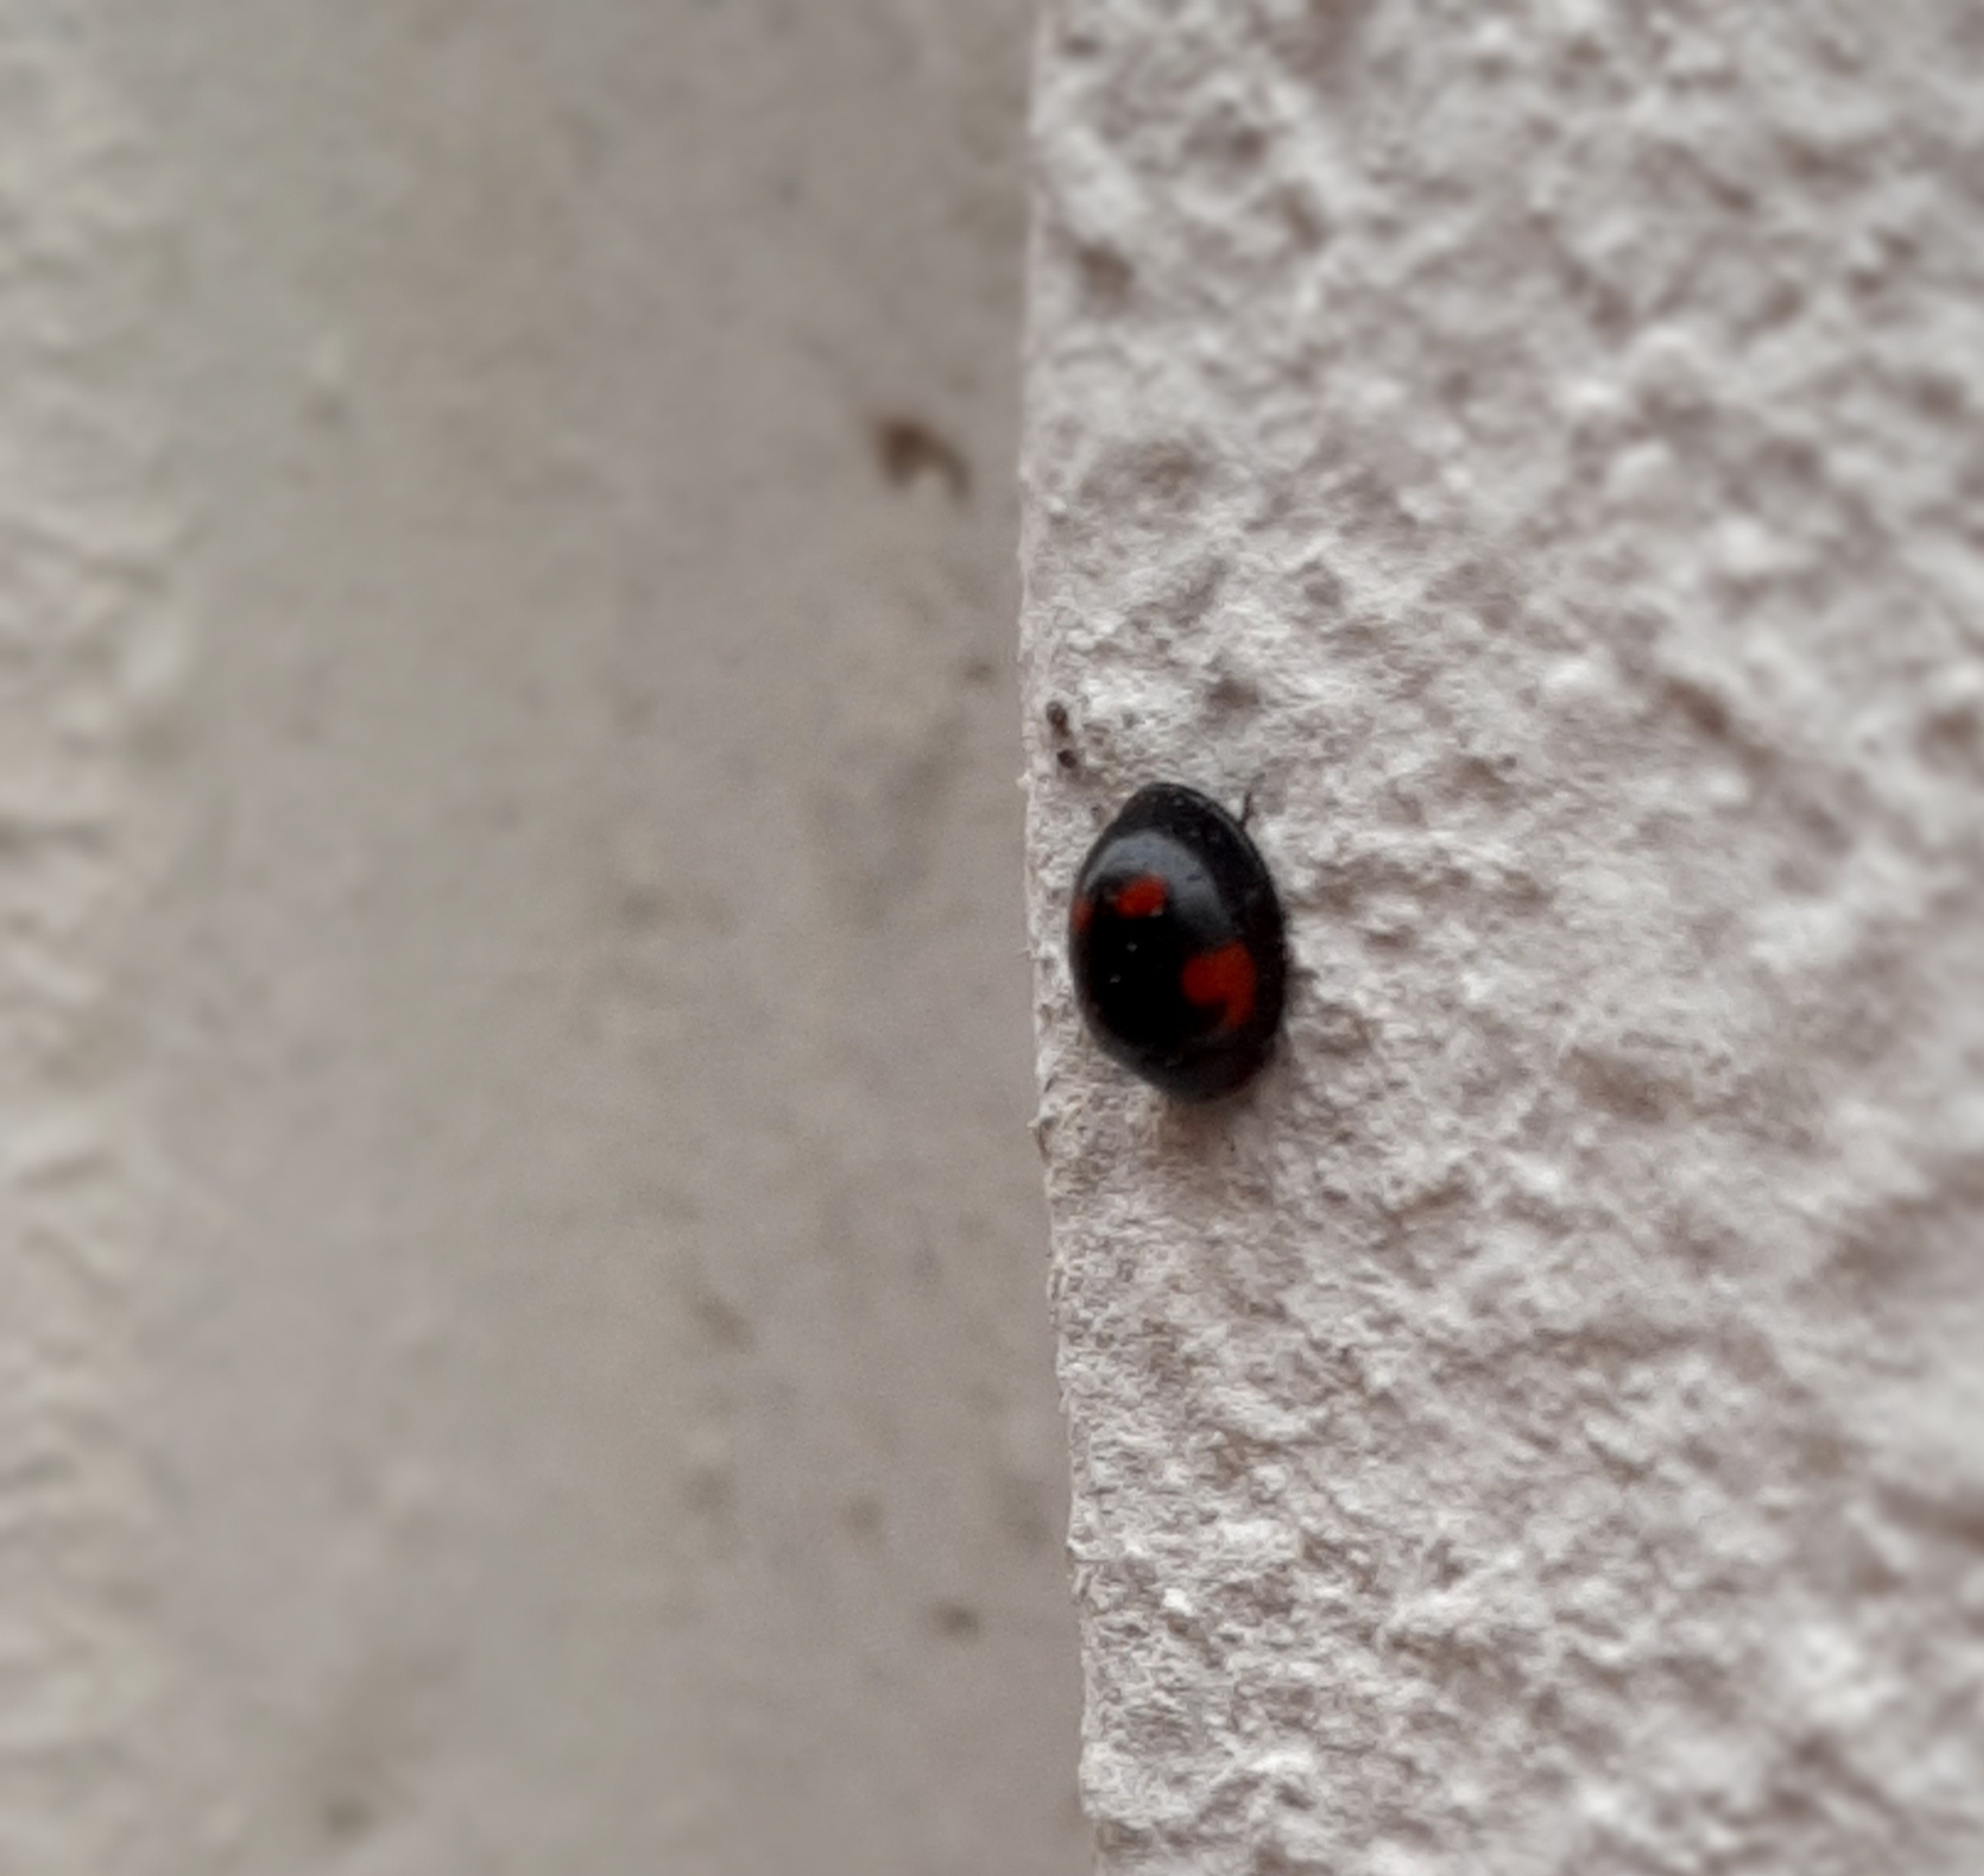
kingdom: Animalia
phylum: Arthropoda
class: Insecta
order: Coleoptera
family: Coccinellidae
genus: Brumus
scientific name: Brumus quadripustulatus
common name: Ladybird beetle
